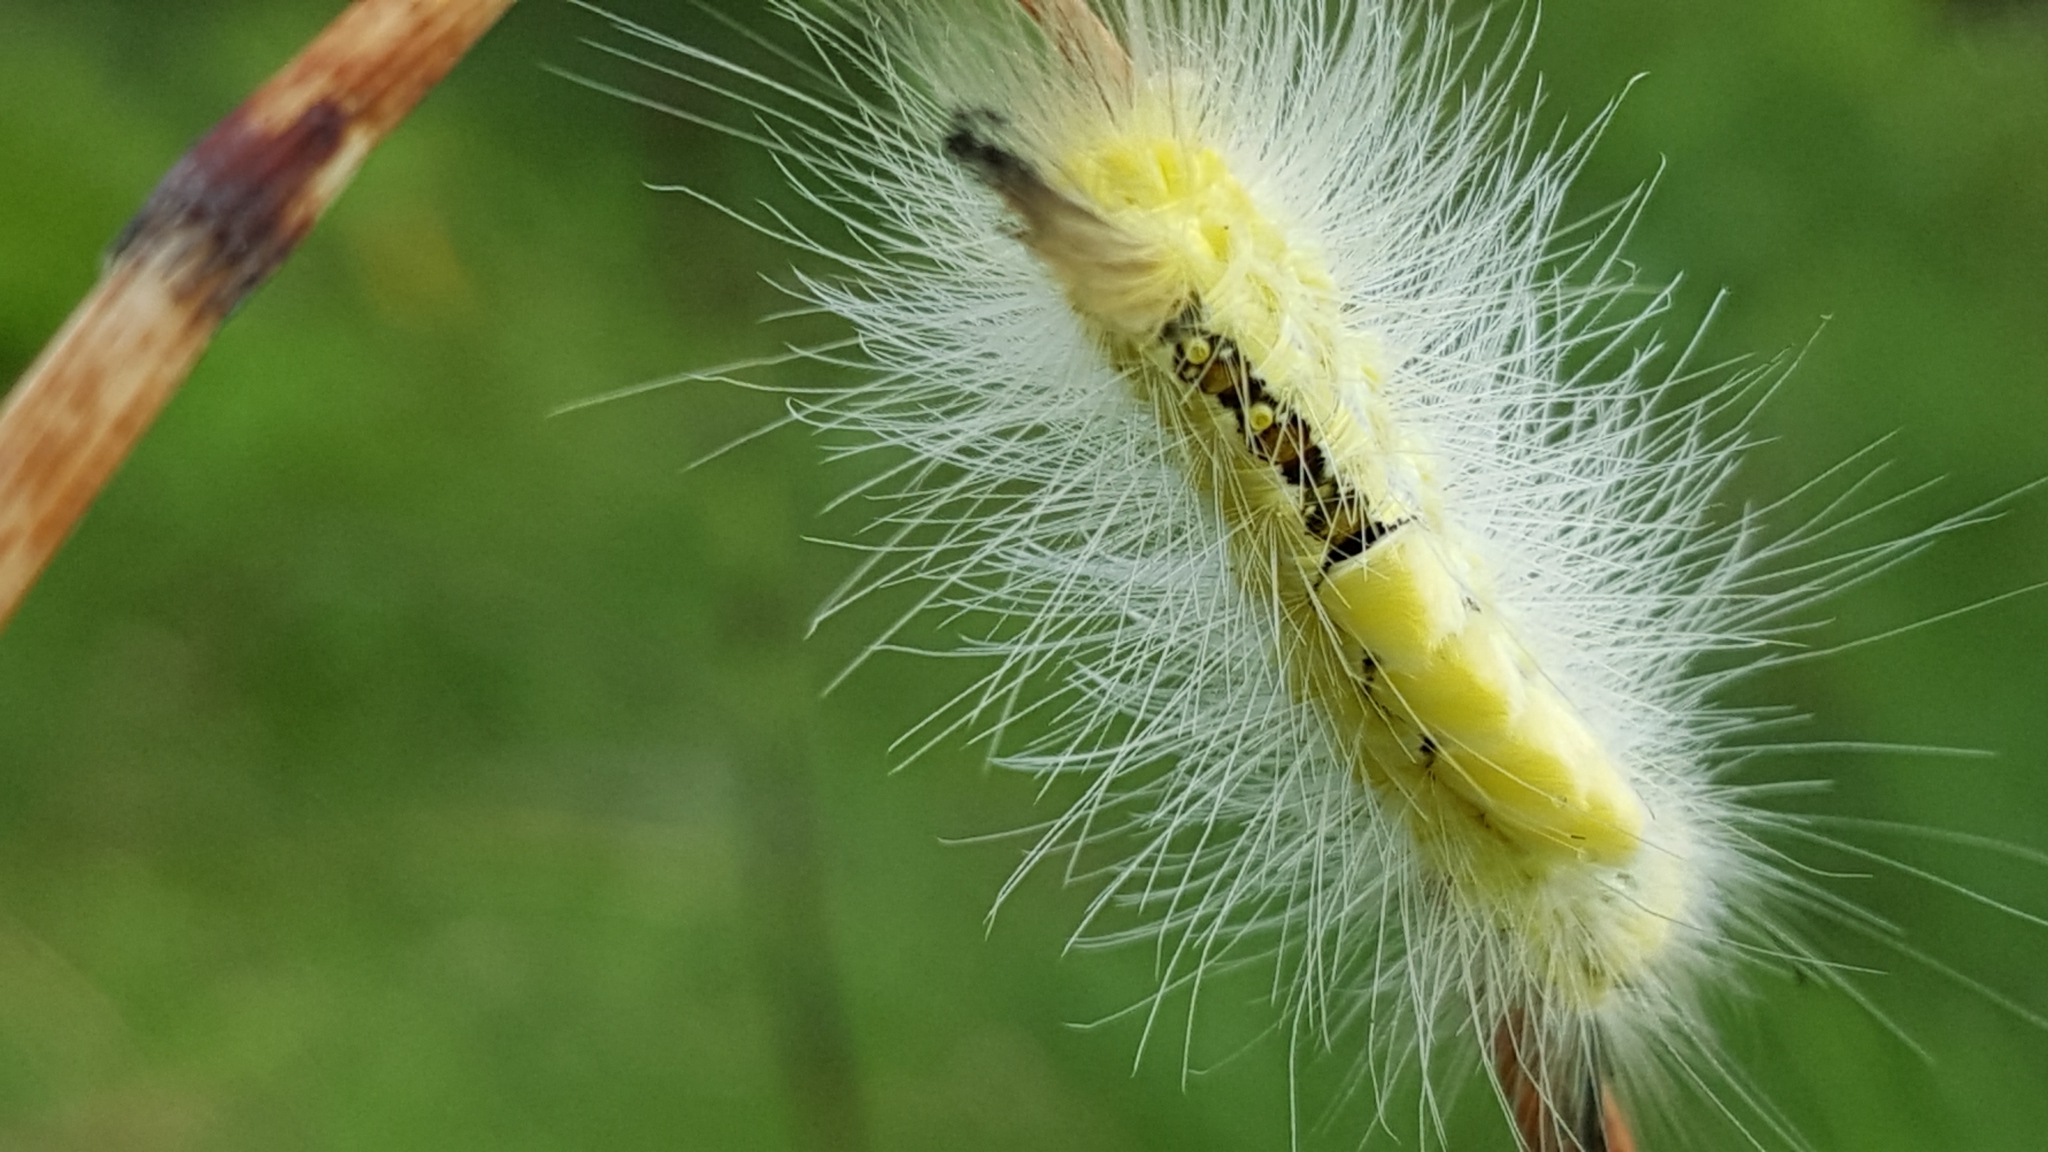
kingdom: Animalia
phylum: Arthropoda
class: Insecta
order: Lepidoptera
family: Erebidae
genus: Orgyia
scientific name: Orgyia definita
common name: Definite tussock moth
